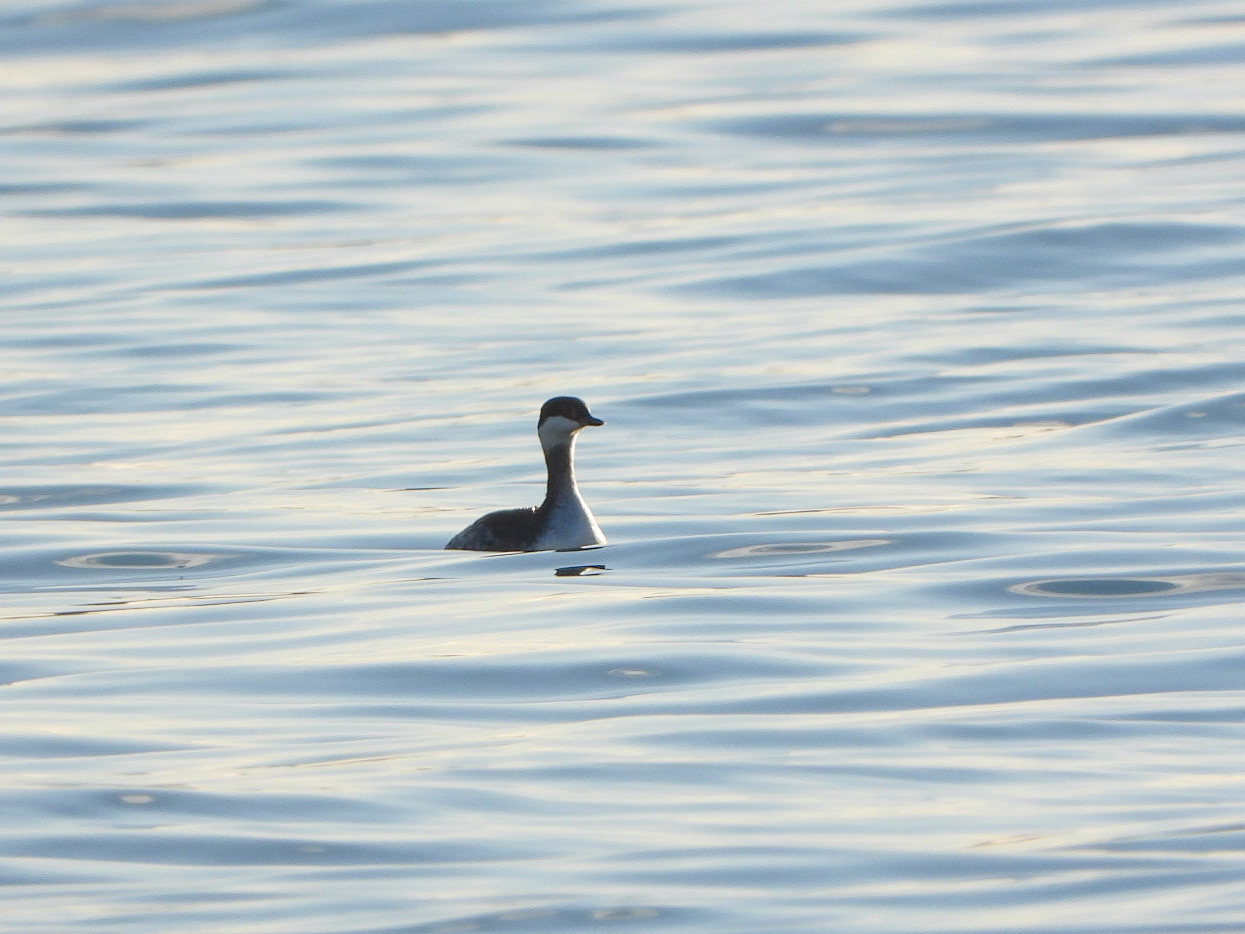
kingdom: Animalia
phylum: Chordata
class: Aves
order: Podicipediformes
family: Podicipedidae
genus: Podiceps
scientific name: Podiceps auritus
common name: Horned grebe
